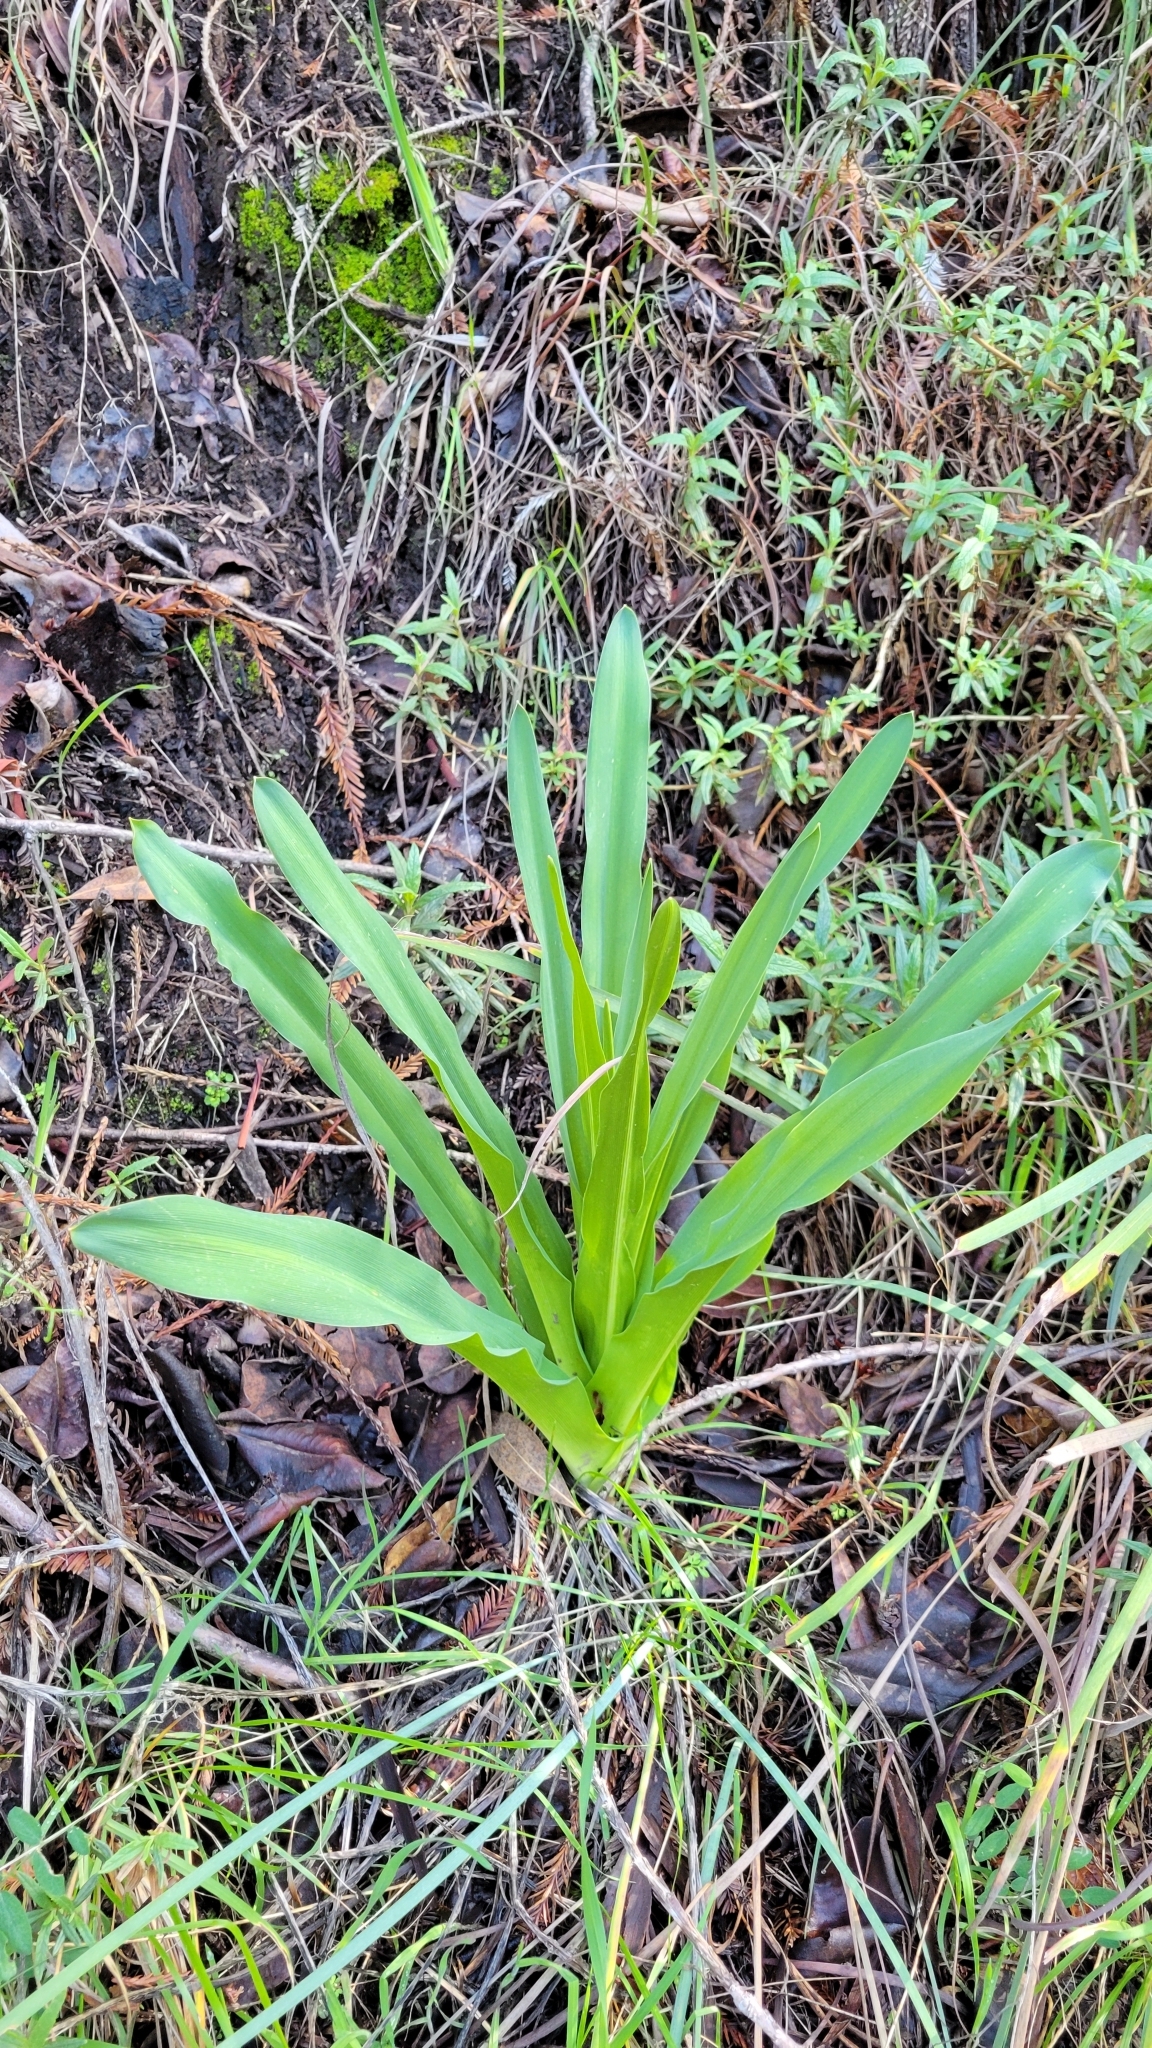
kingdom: Plantae
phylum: Tracheophyta
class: Liliopsida
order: Asparagales
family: Asparagaceae
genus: Chlorogalum
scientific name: Chlorogalum pomeridianum
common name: Amole
